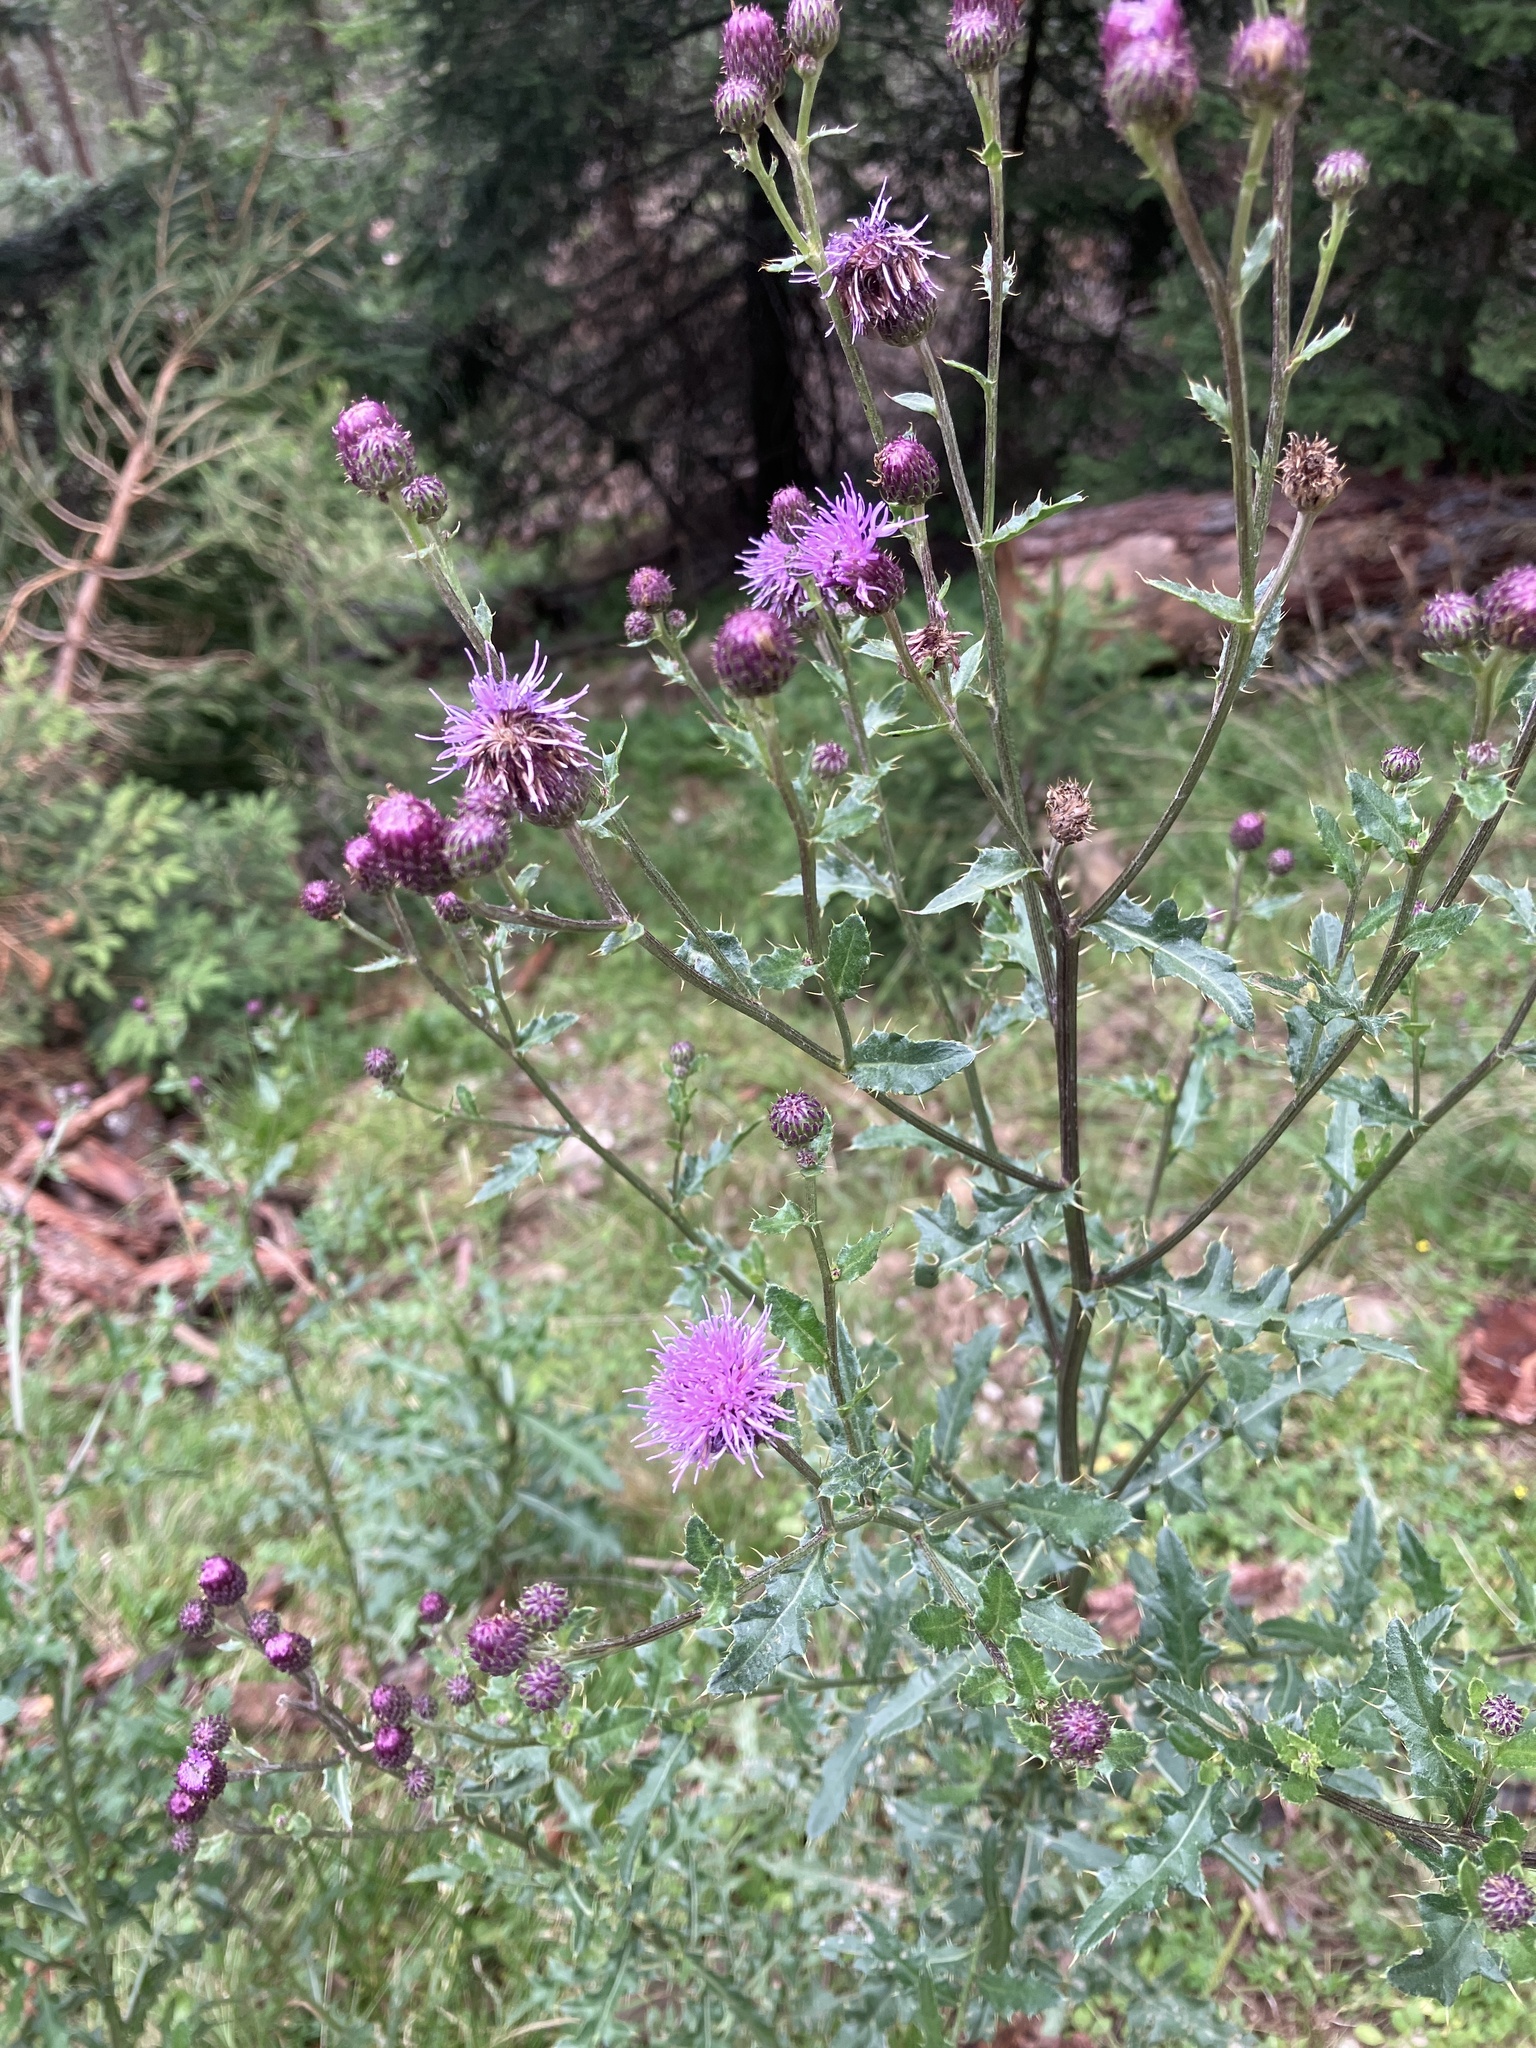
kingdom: Plantae
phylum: Tracheophyta
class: Magnoliopsida
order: Asterales
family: Asteraceae
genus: Cirsium
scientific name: Cirsium arvense
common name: Creeping thistle
